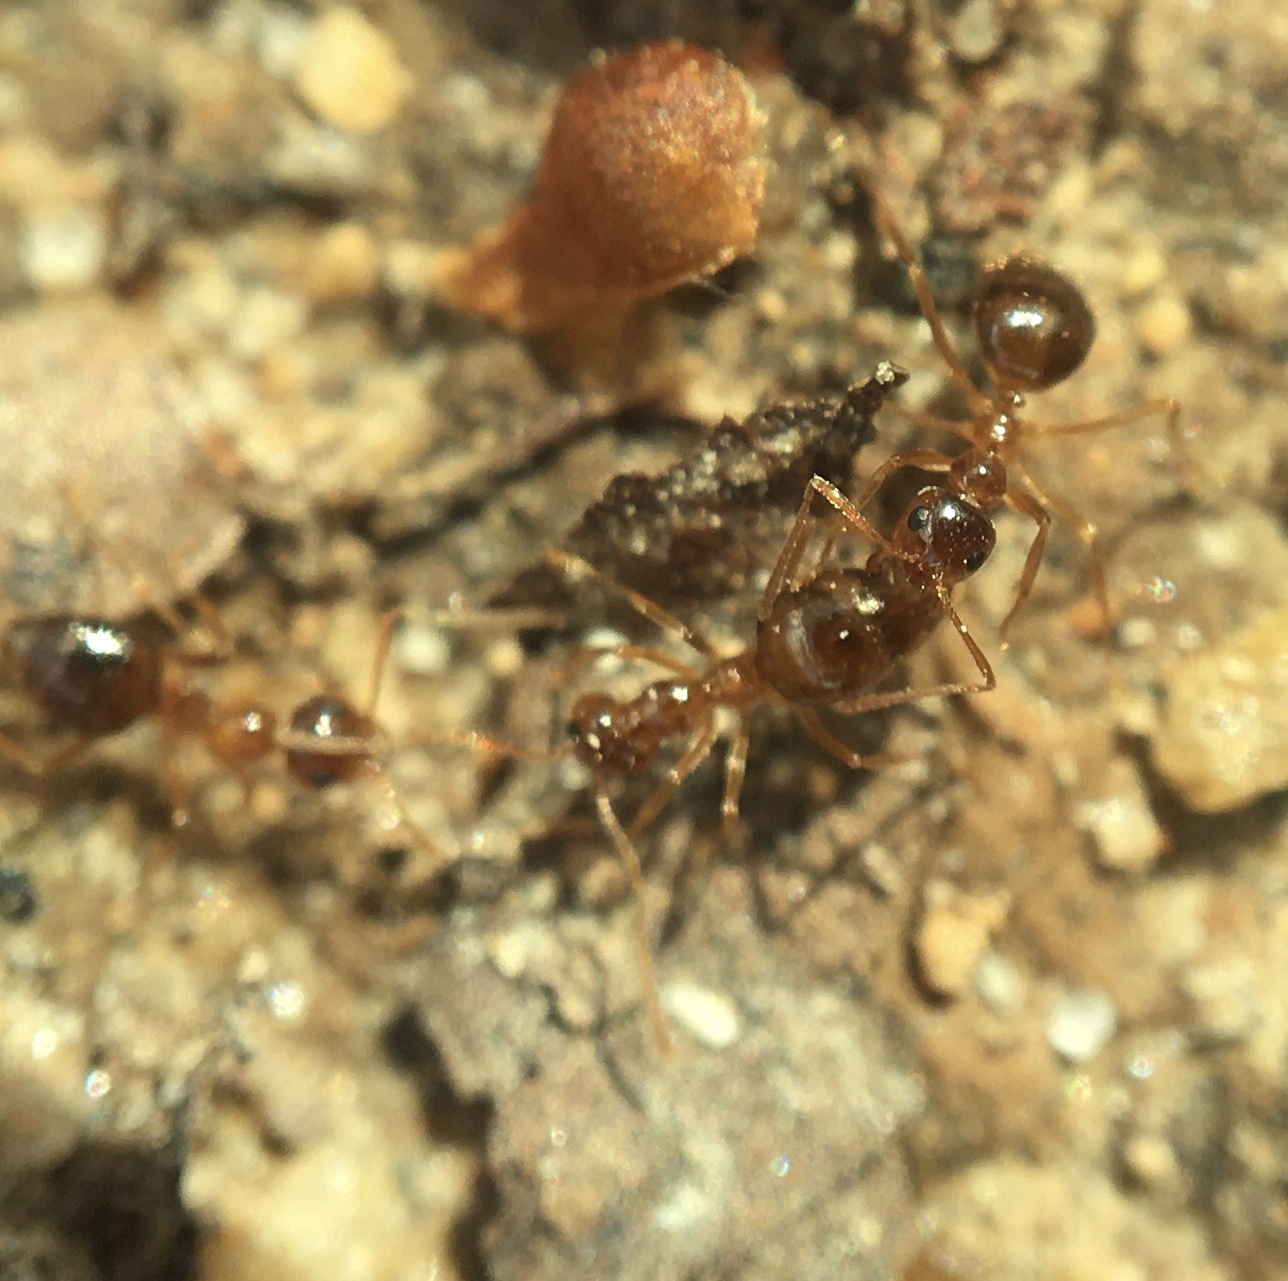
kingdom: Animalia
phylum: Arthropoda
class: Insecta
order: Hymenoptera
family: Formicidae
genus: Prenolepis
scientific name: Prenolepis imparis
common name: Small honey ant
